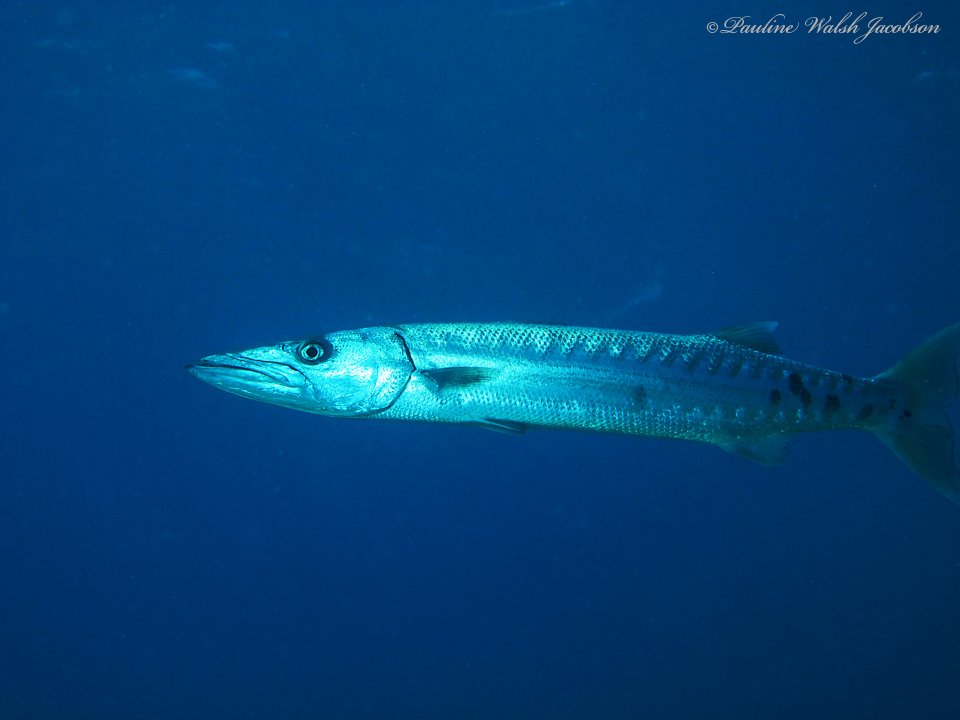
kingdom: Animalia
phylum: Chordata
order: Perciformes
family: Sphyraenidae
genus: Sphyraena
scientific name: Sphyraena barracuda
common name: Great barracuda
